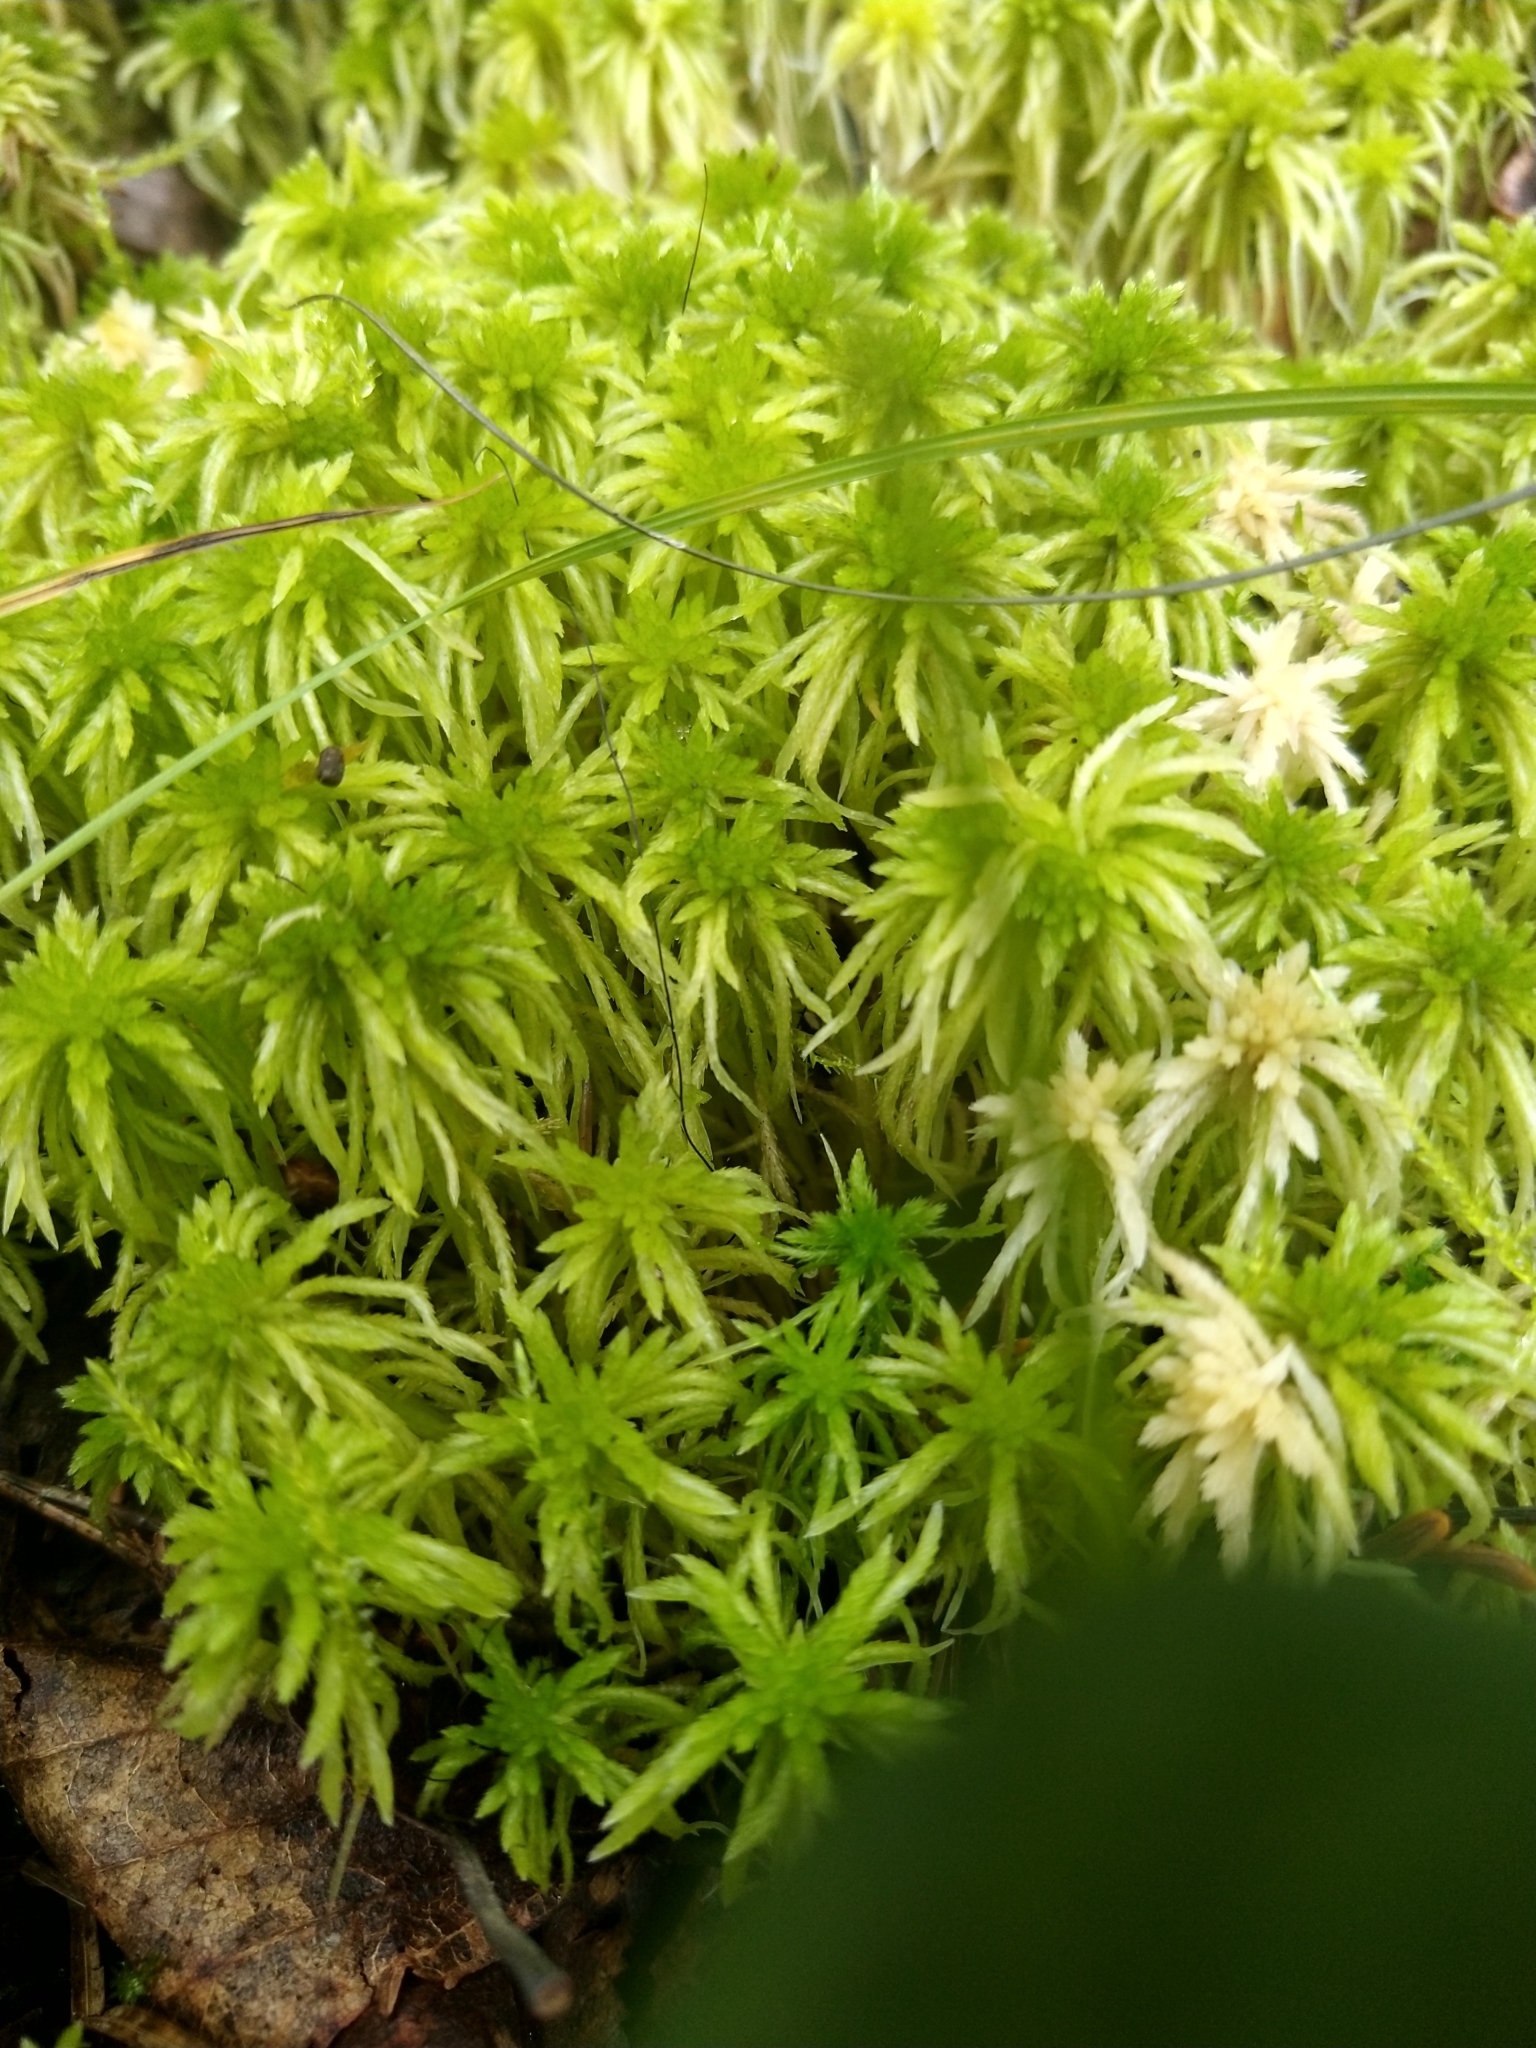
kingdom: Plantae
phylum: Bryophyta
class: Sphagnopsida
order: Sphagnales
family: Sphagnaceae
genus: Sphagnum
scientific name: Sphagnum girgensohnii
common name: Girgensohn's peat moss
